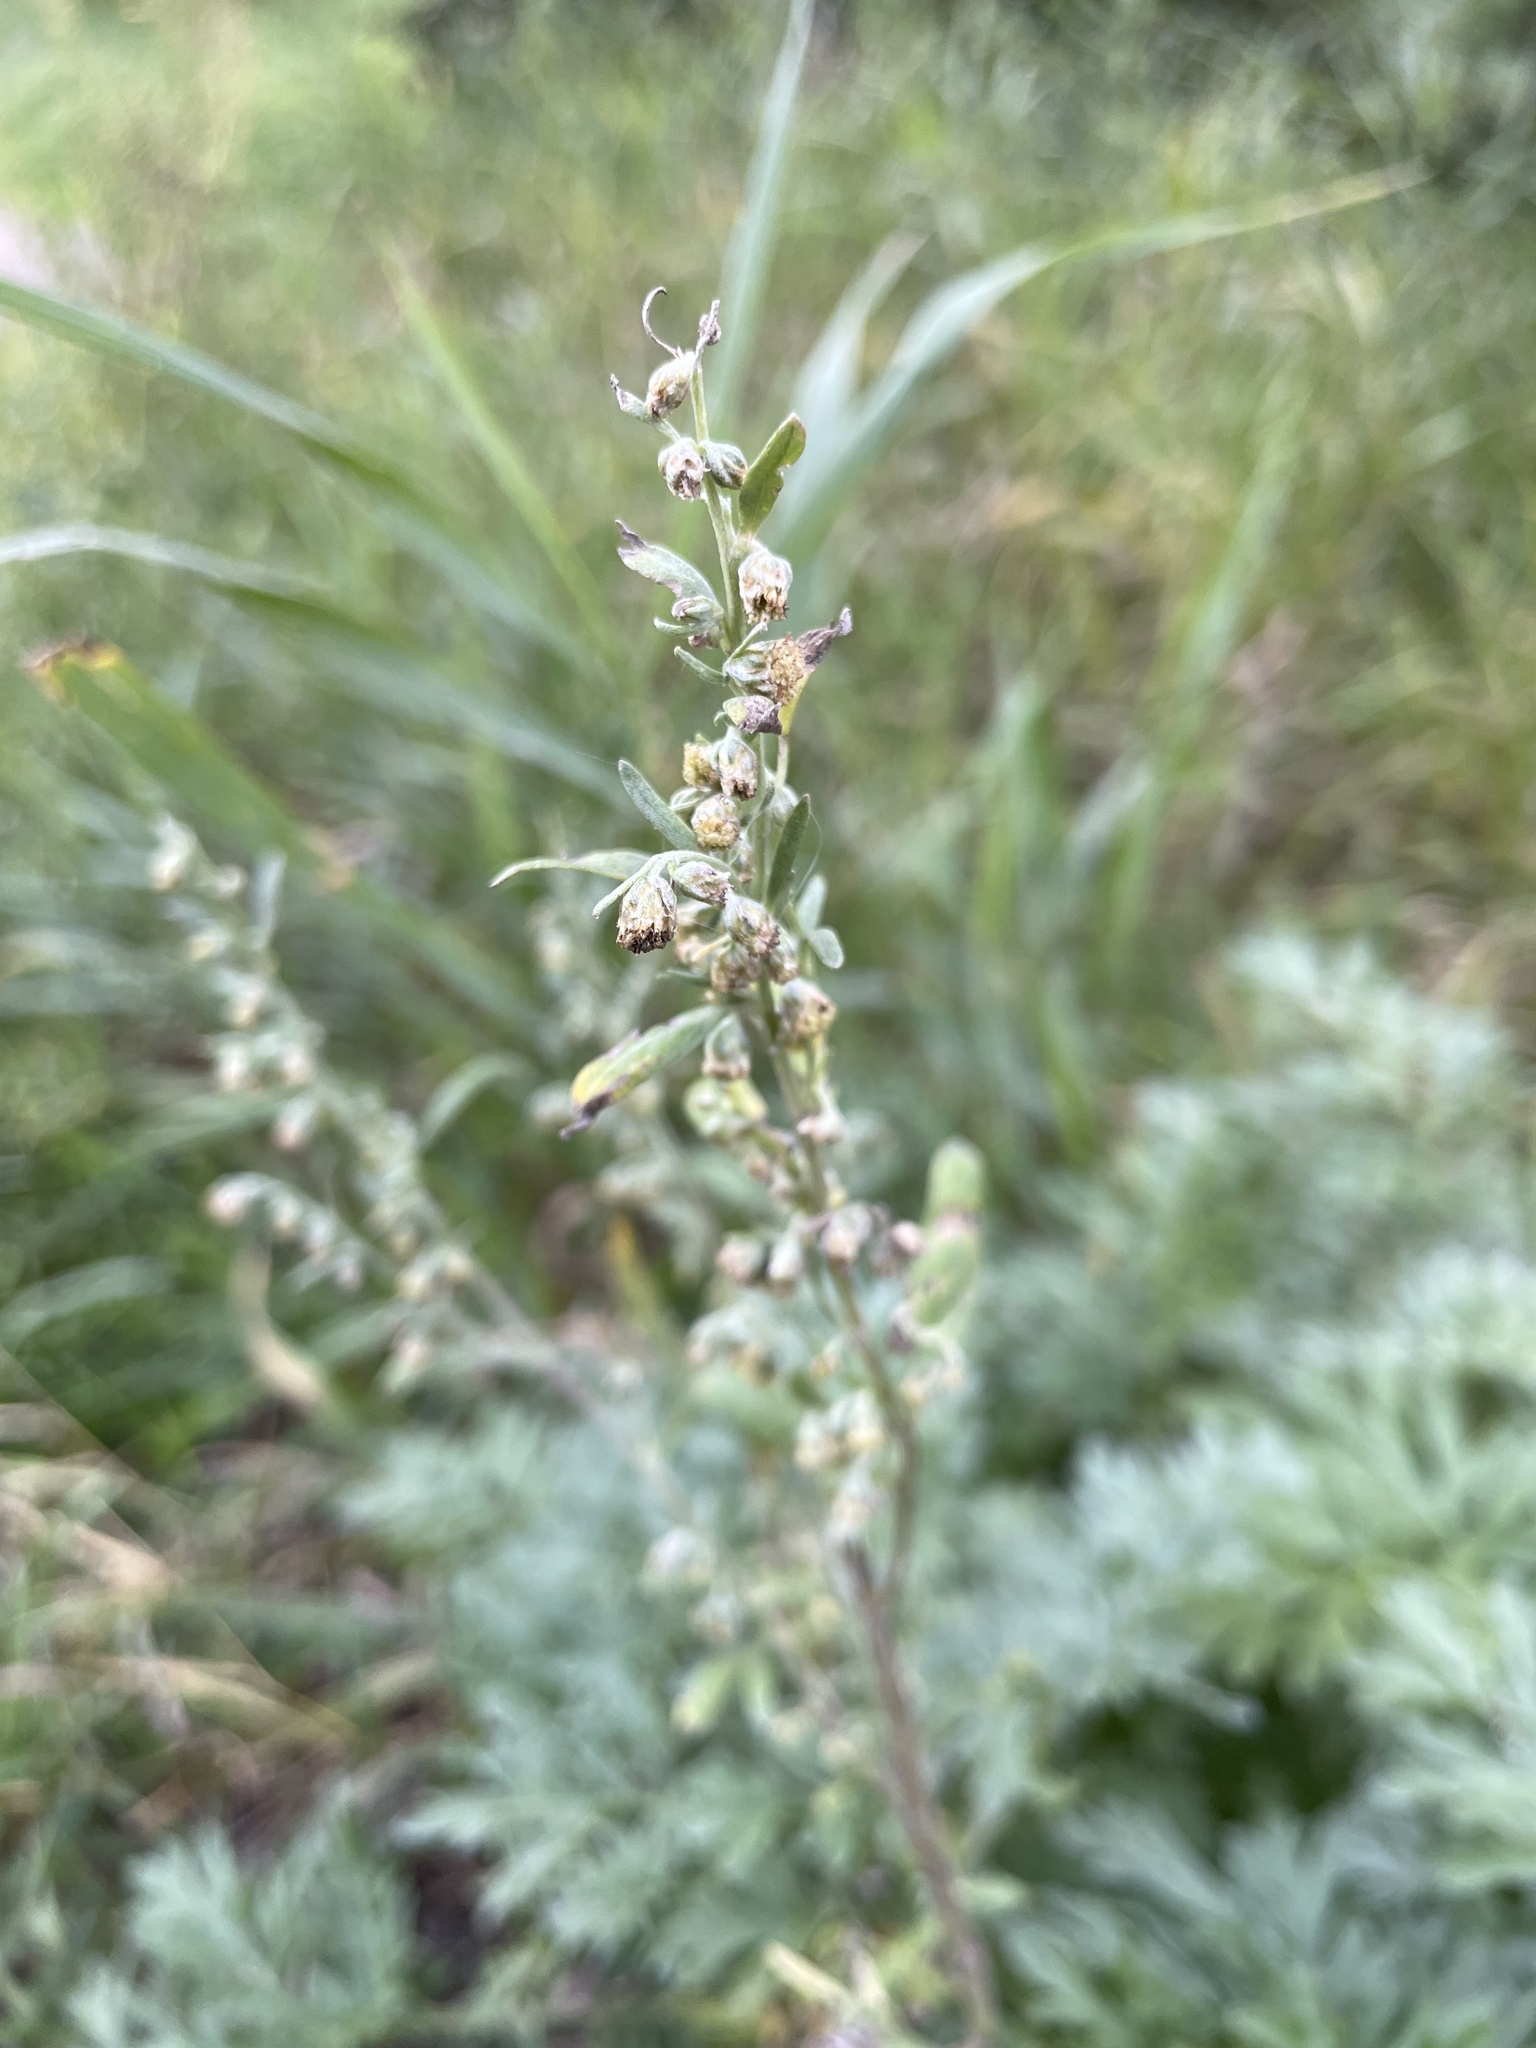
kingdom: Plantae
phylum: Tracheophyta
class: Magnoliopsida
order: Asterales
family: Asteraceae
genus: Artemisia
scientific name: Artemisia absinthium
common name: Wormwood
